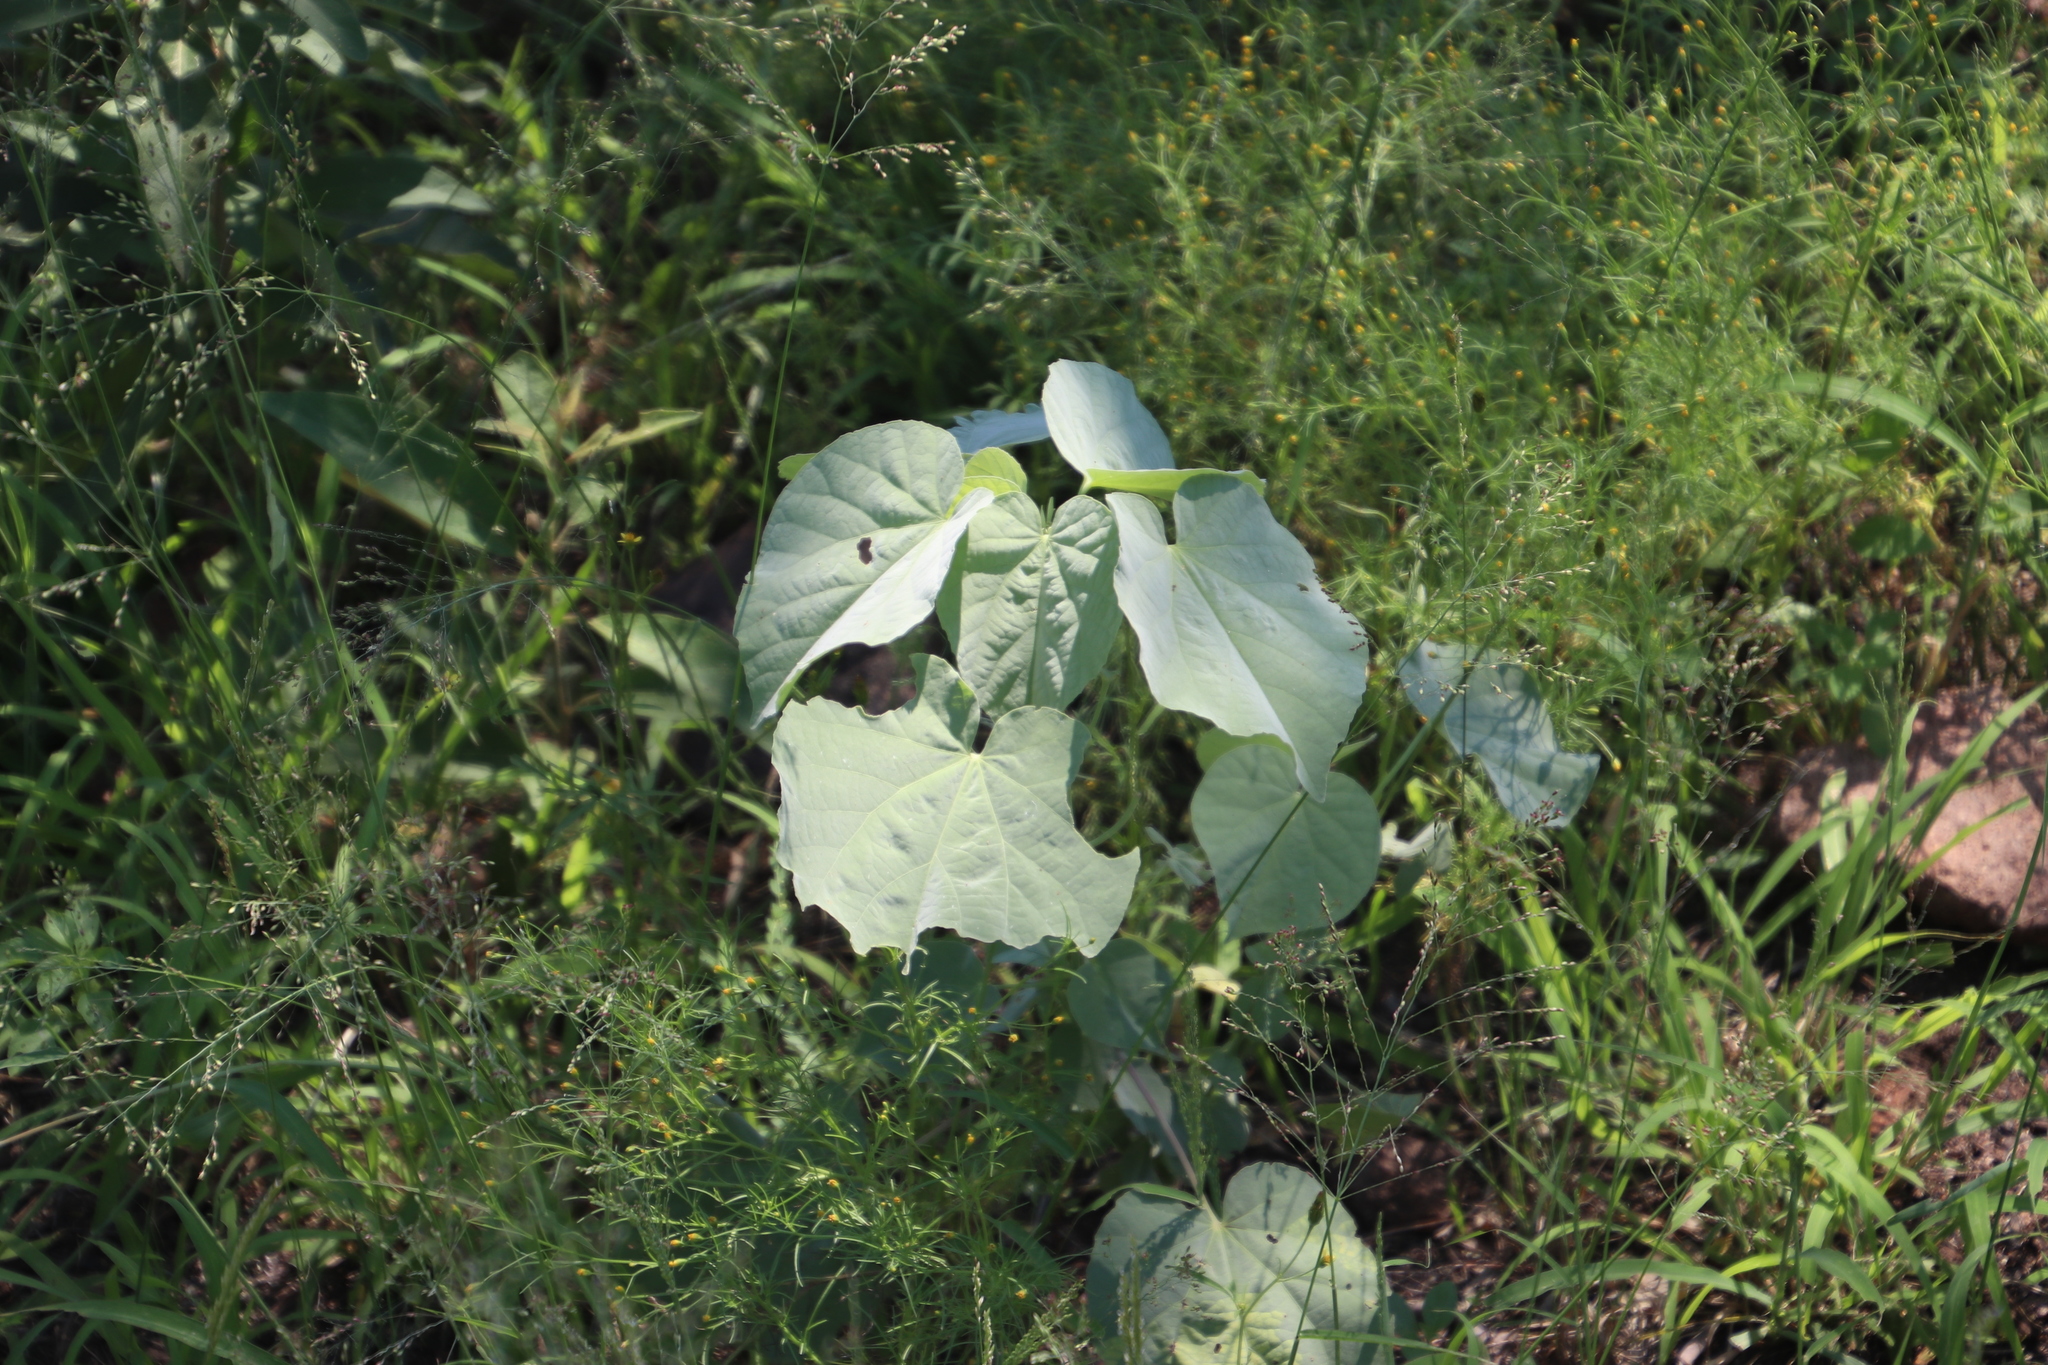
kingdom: Plantae
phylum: Tracheophyta
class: Magnoliopsida
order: Malvales
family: Malvaceae
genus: Abutilon
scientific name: Abutilon angulatum
